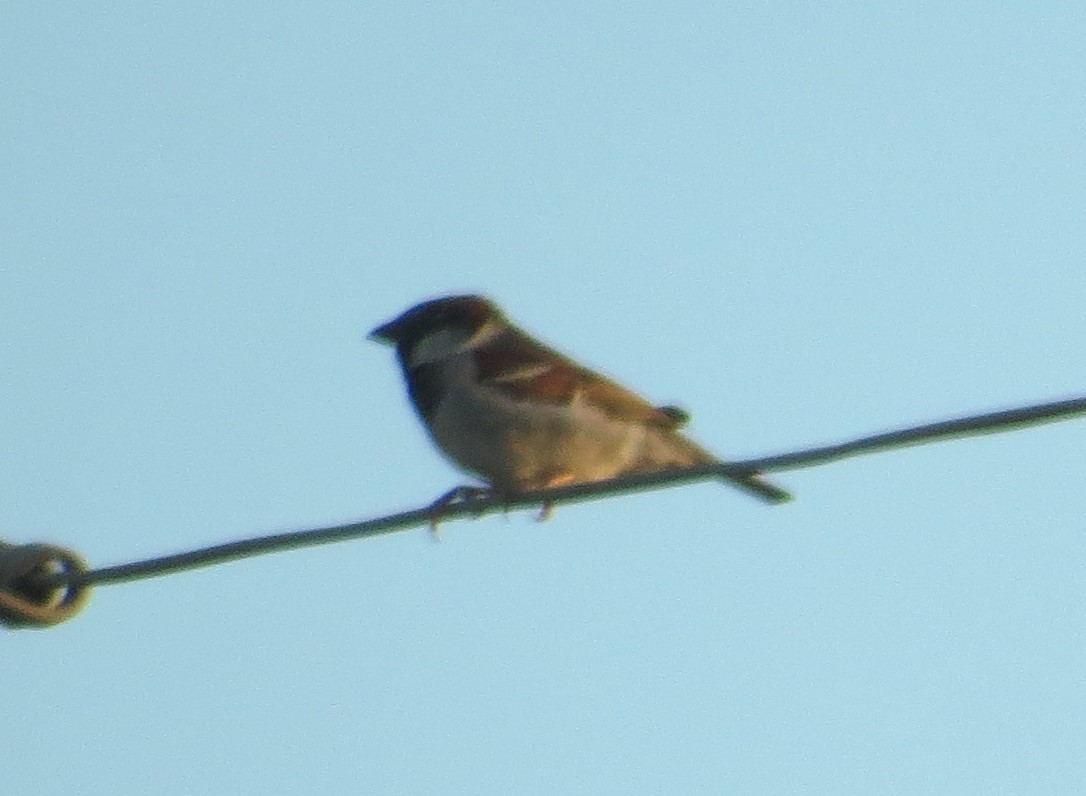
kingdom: Animalia
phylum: Chordata
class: Aves
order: Passeriformes
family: Passeridae
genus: Passer
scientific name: Passer domesticus
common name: House sparrow
